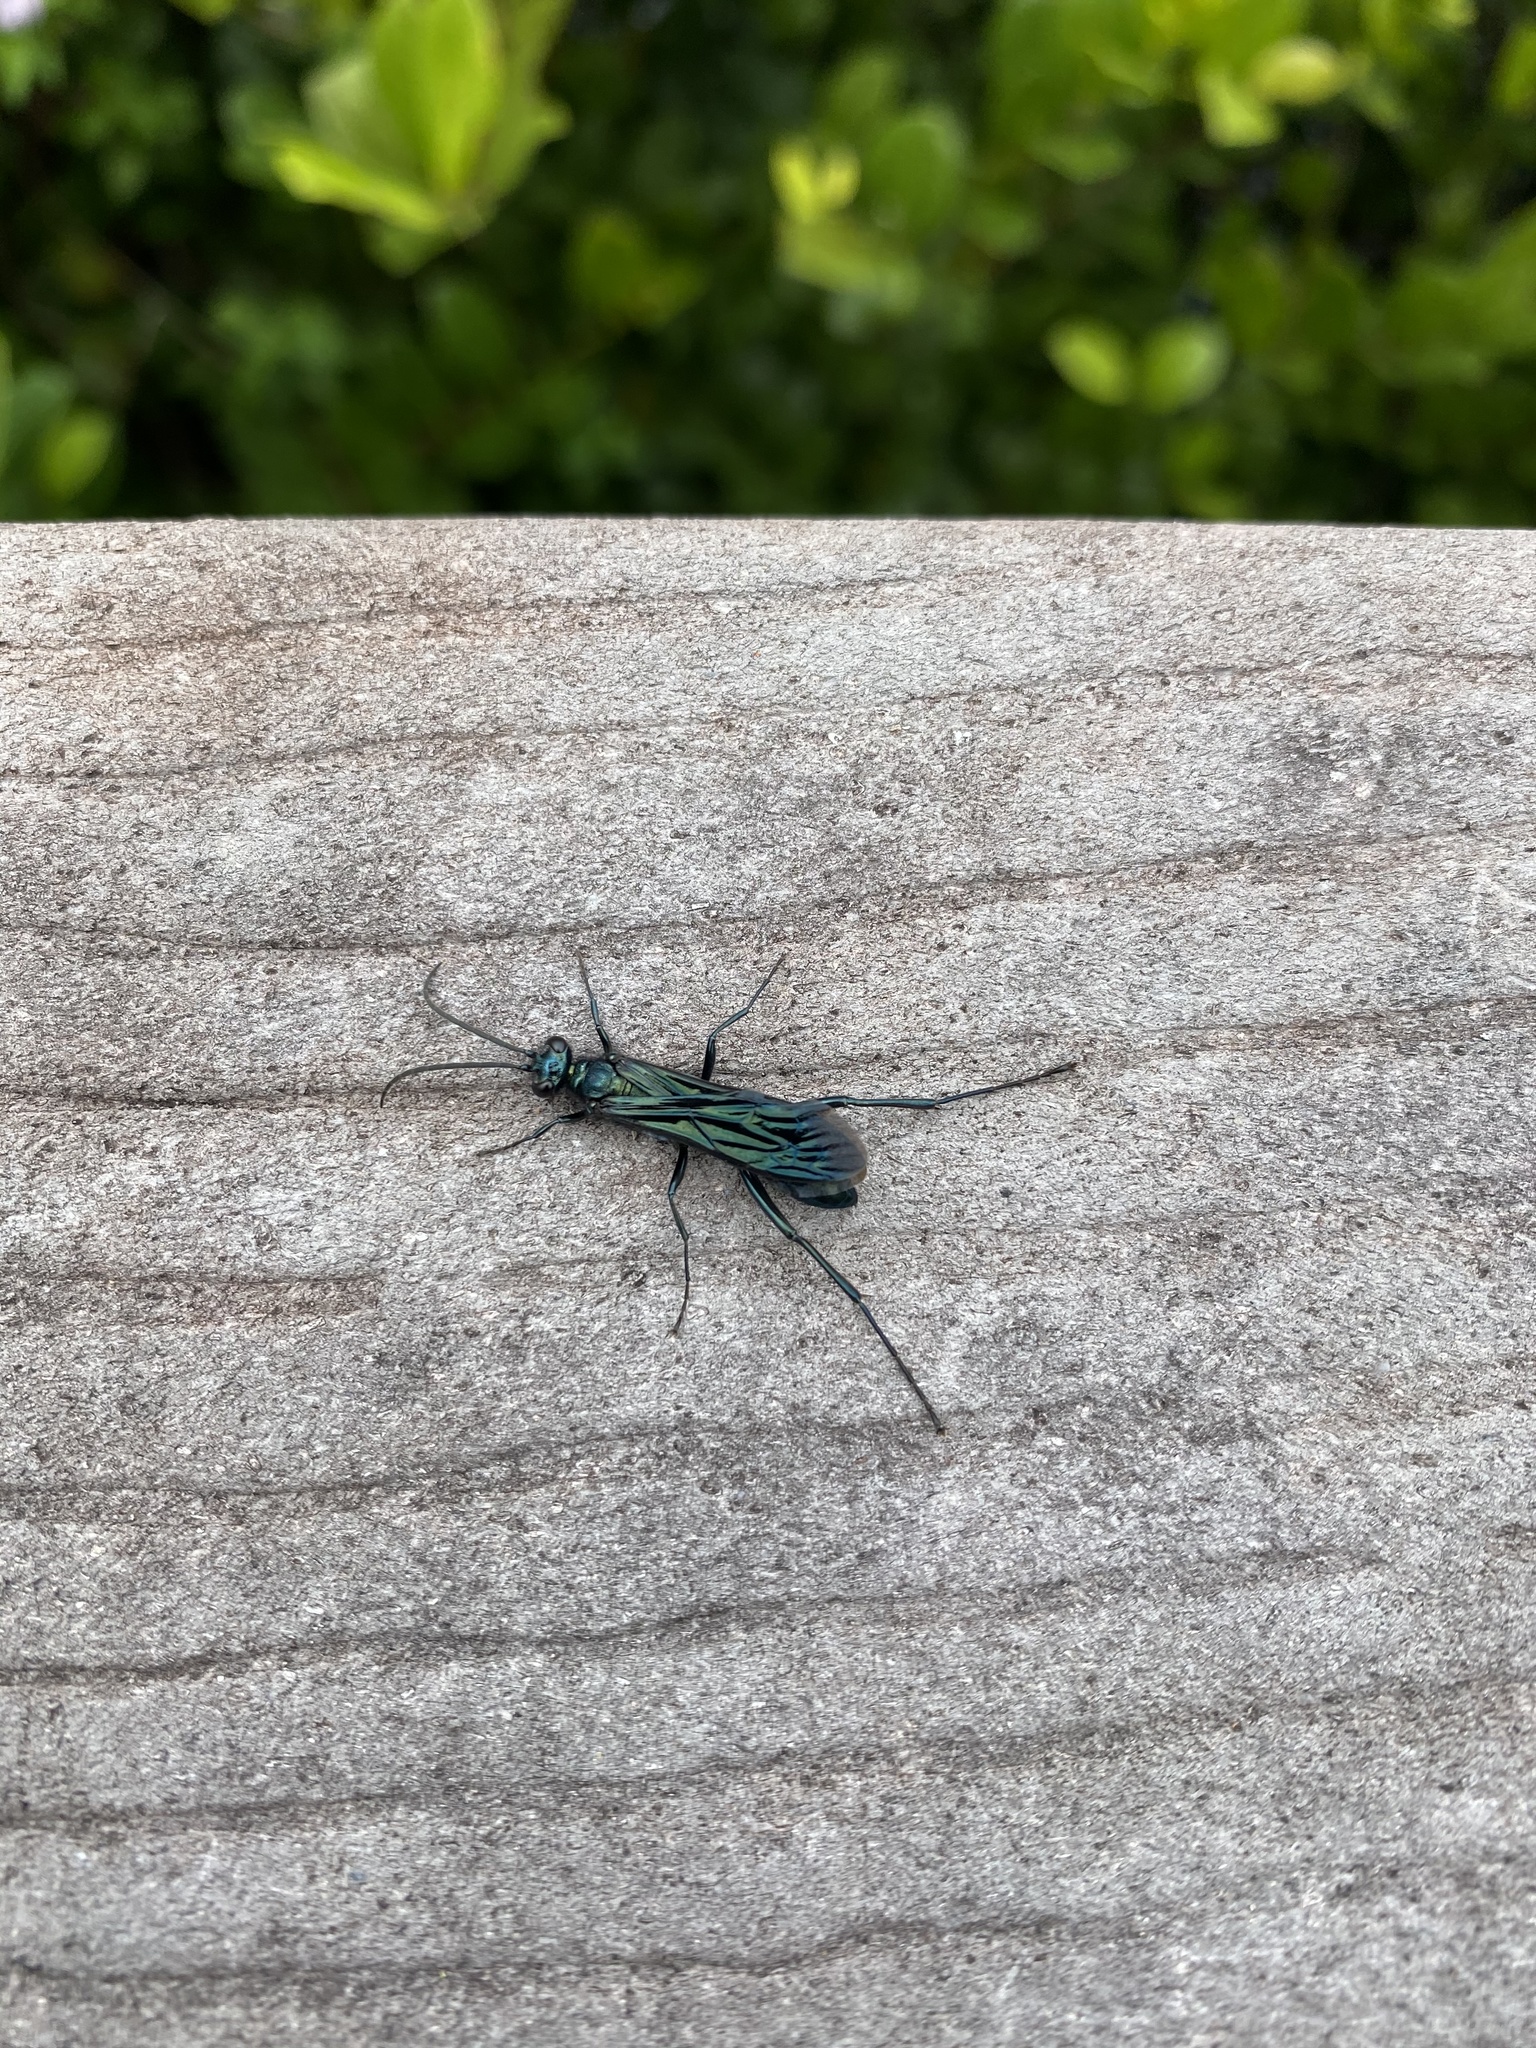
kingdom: Animalia
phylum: Arthropoda
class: Insecta
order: Hymenoptera
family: Sphecidae
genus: Chalybion
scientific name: Chalybion californicum
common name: Mud dauber
